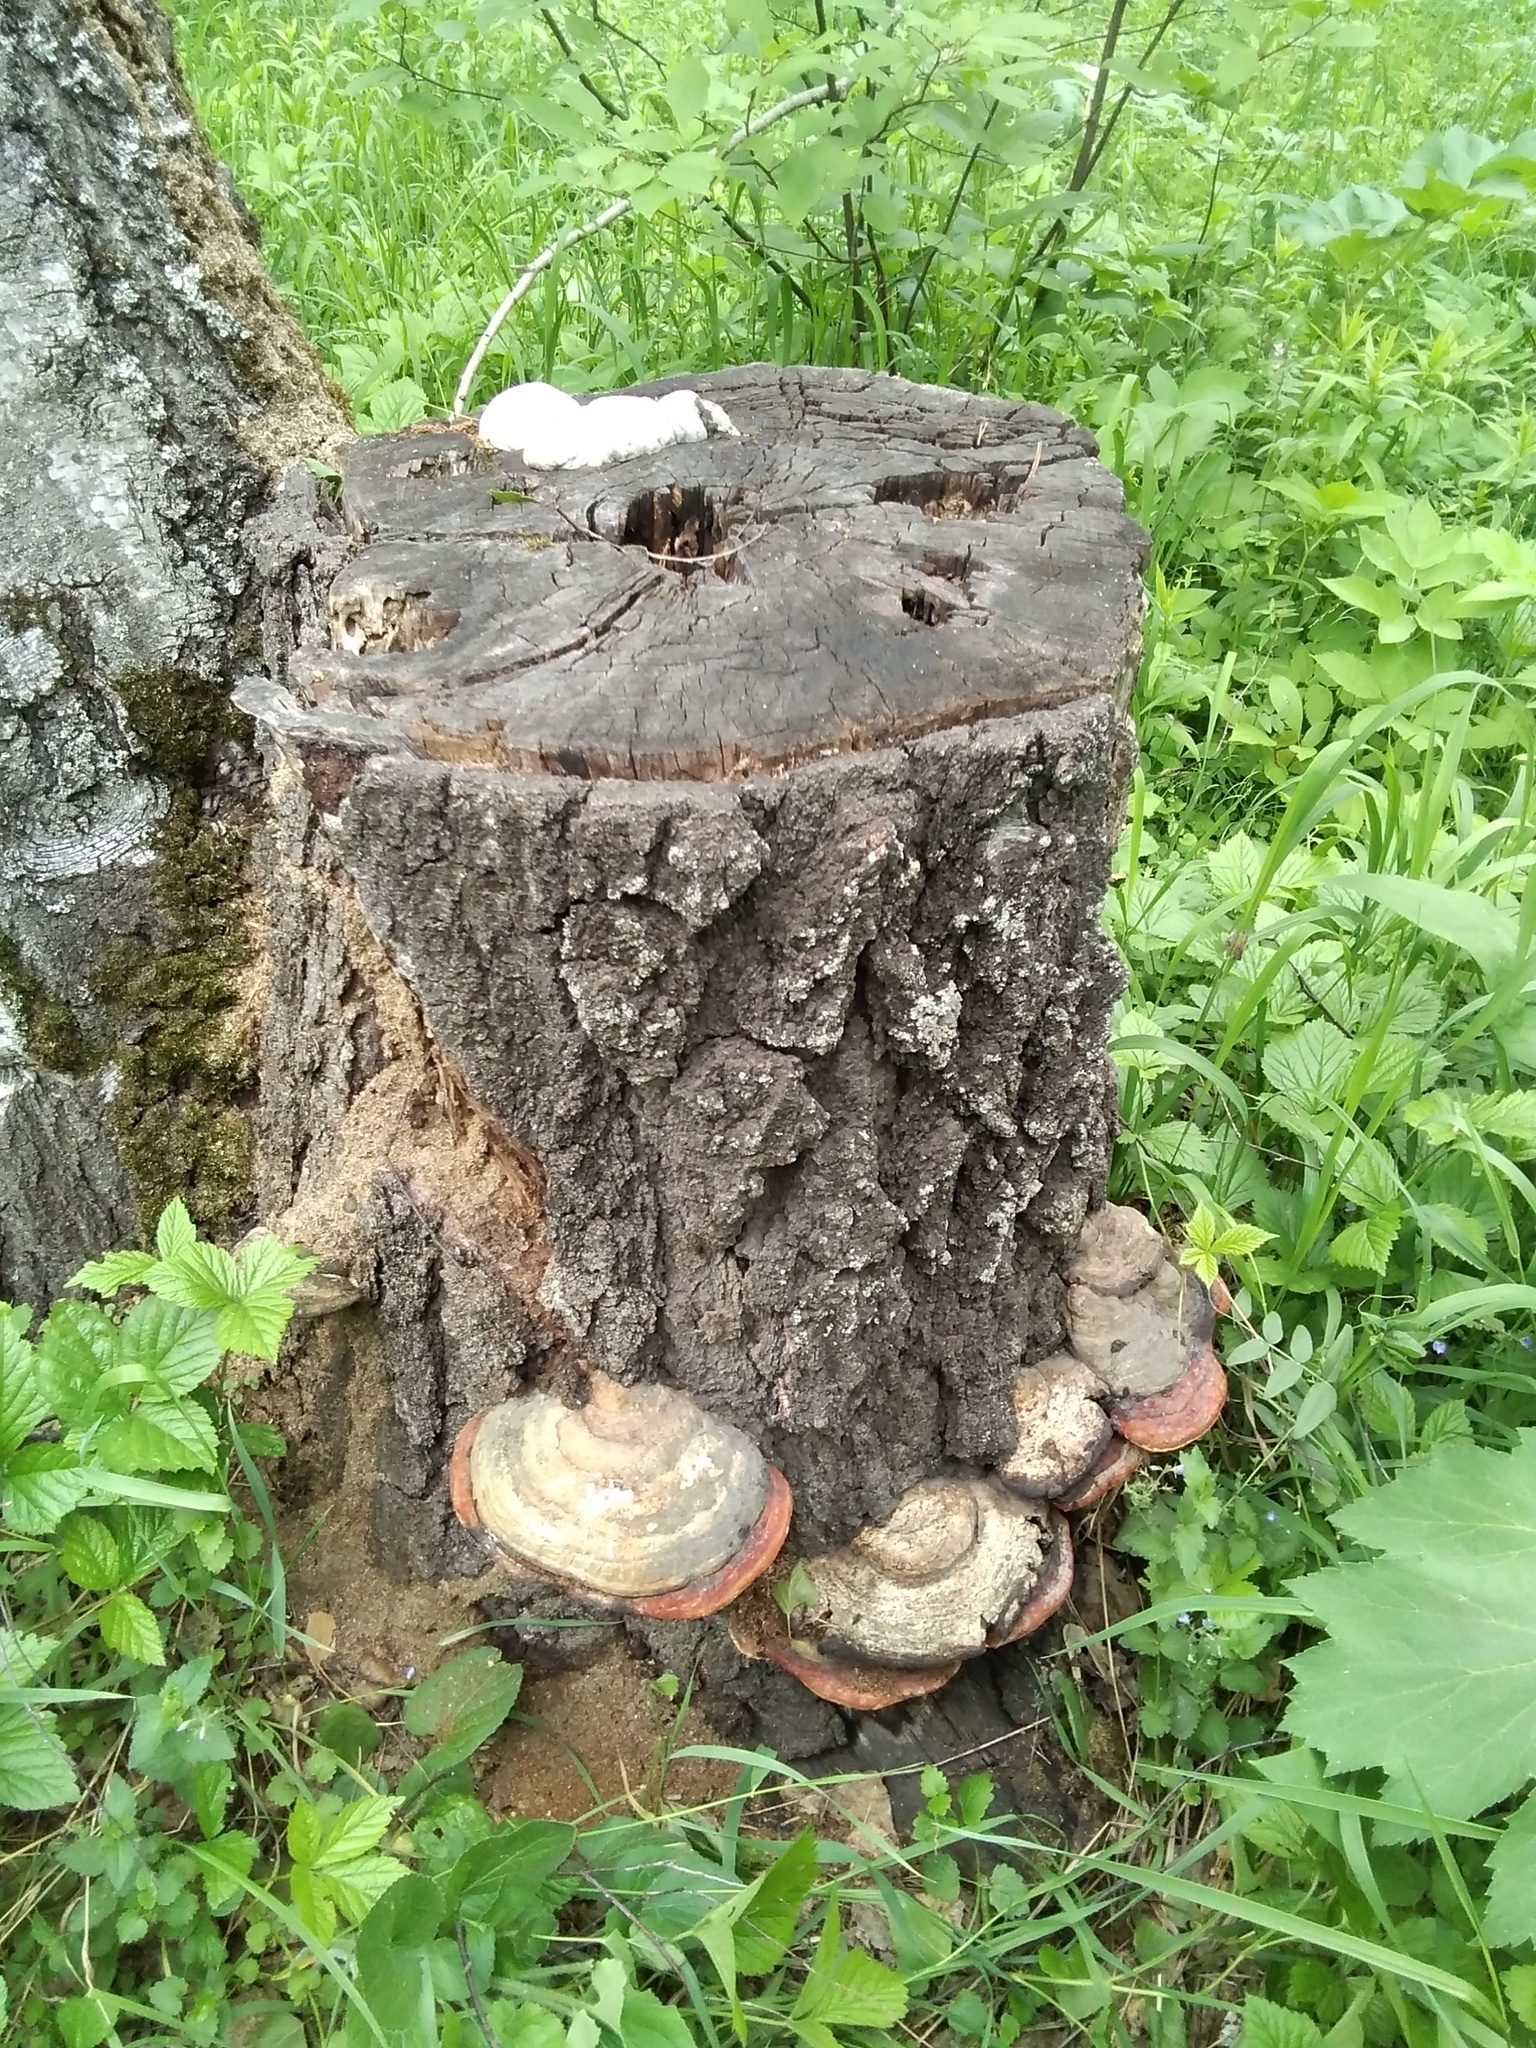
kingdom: Fungi
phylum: Basidiomycota
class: Agaricomycetes
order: Polyporales
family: Fomitopsidaceae
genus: Fomitopsis
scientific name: Fomitopsis pinicola
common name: Red-belted bracket
